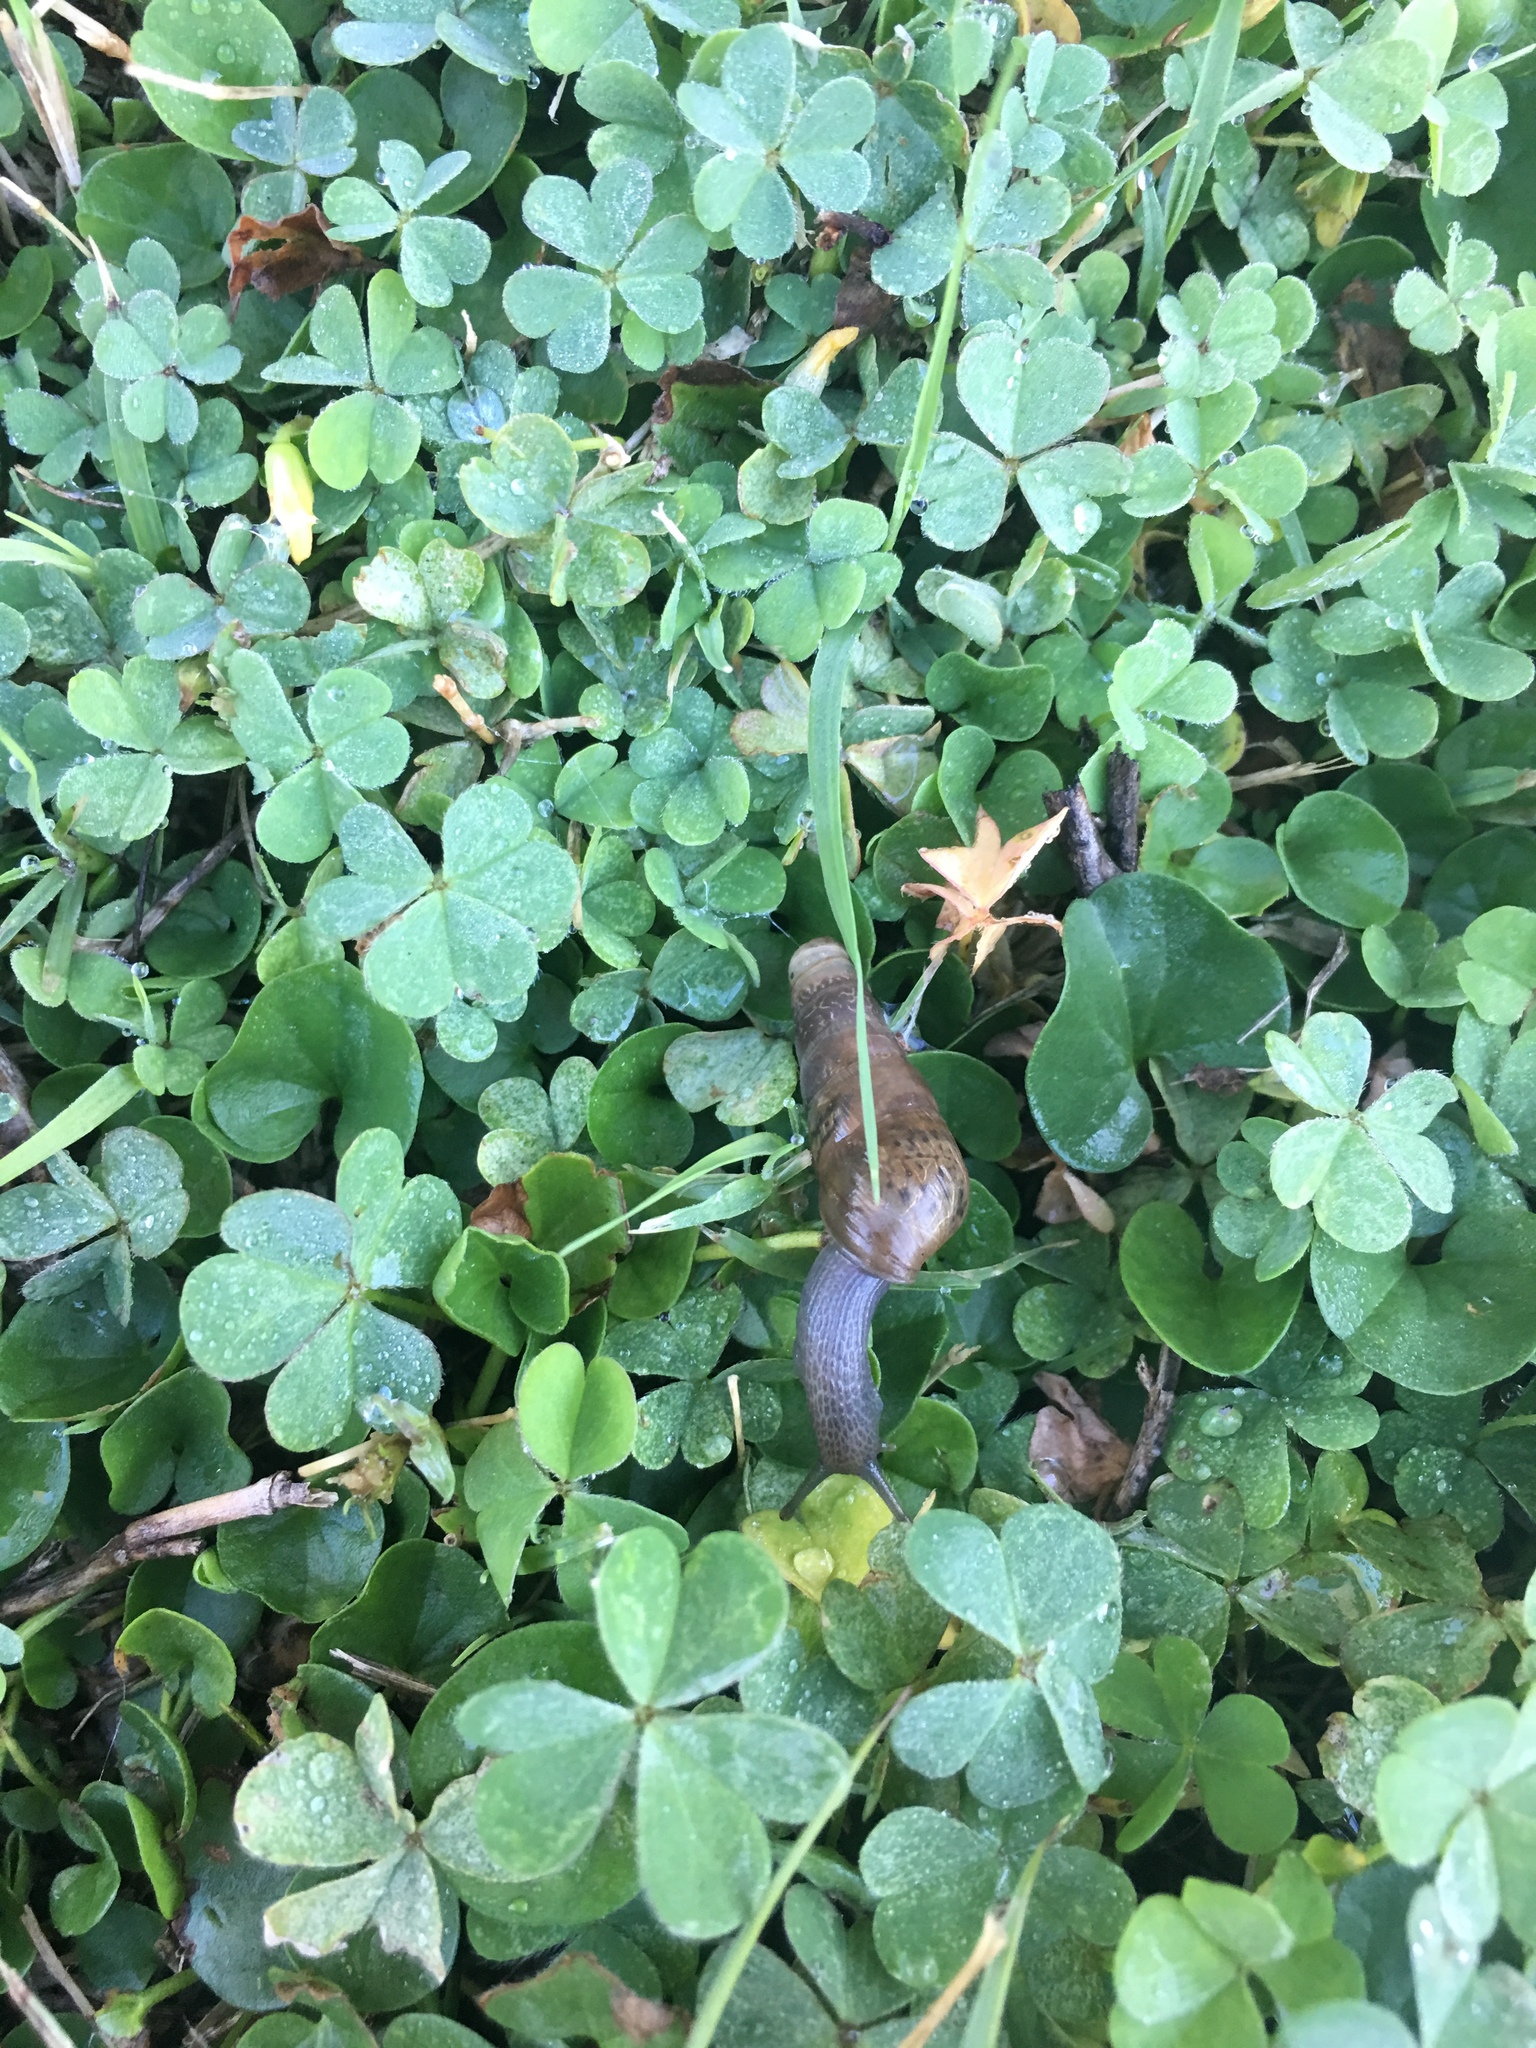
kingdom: Animalia
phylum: Mollusca
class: Gastropoda
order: Stylommatophora
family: Achatinidae
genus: Rumina
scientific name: Rumina decollata
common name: Decollate snail
